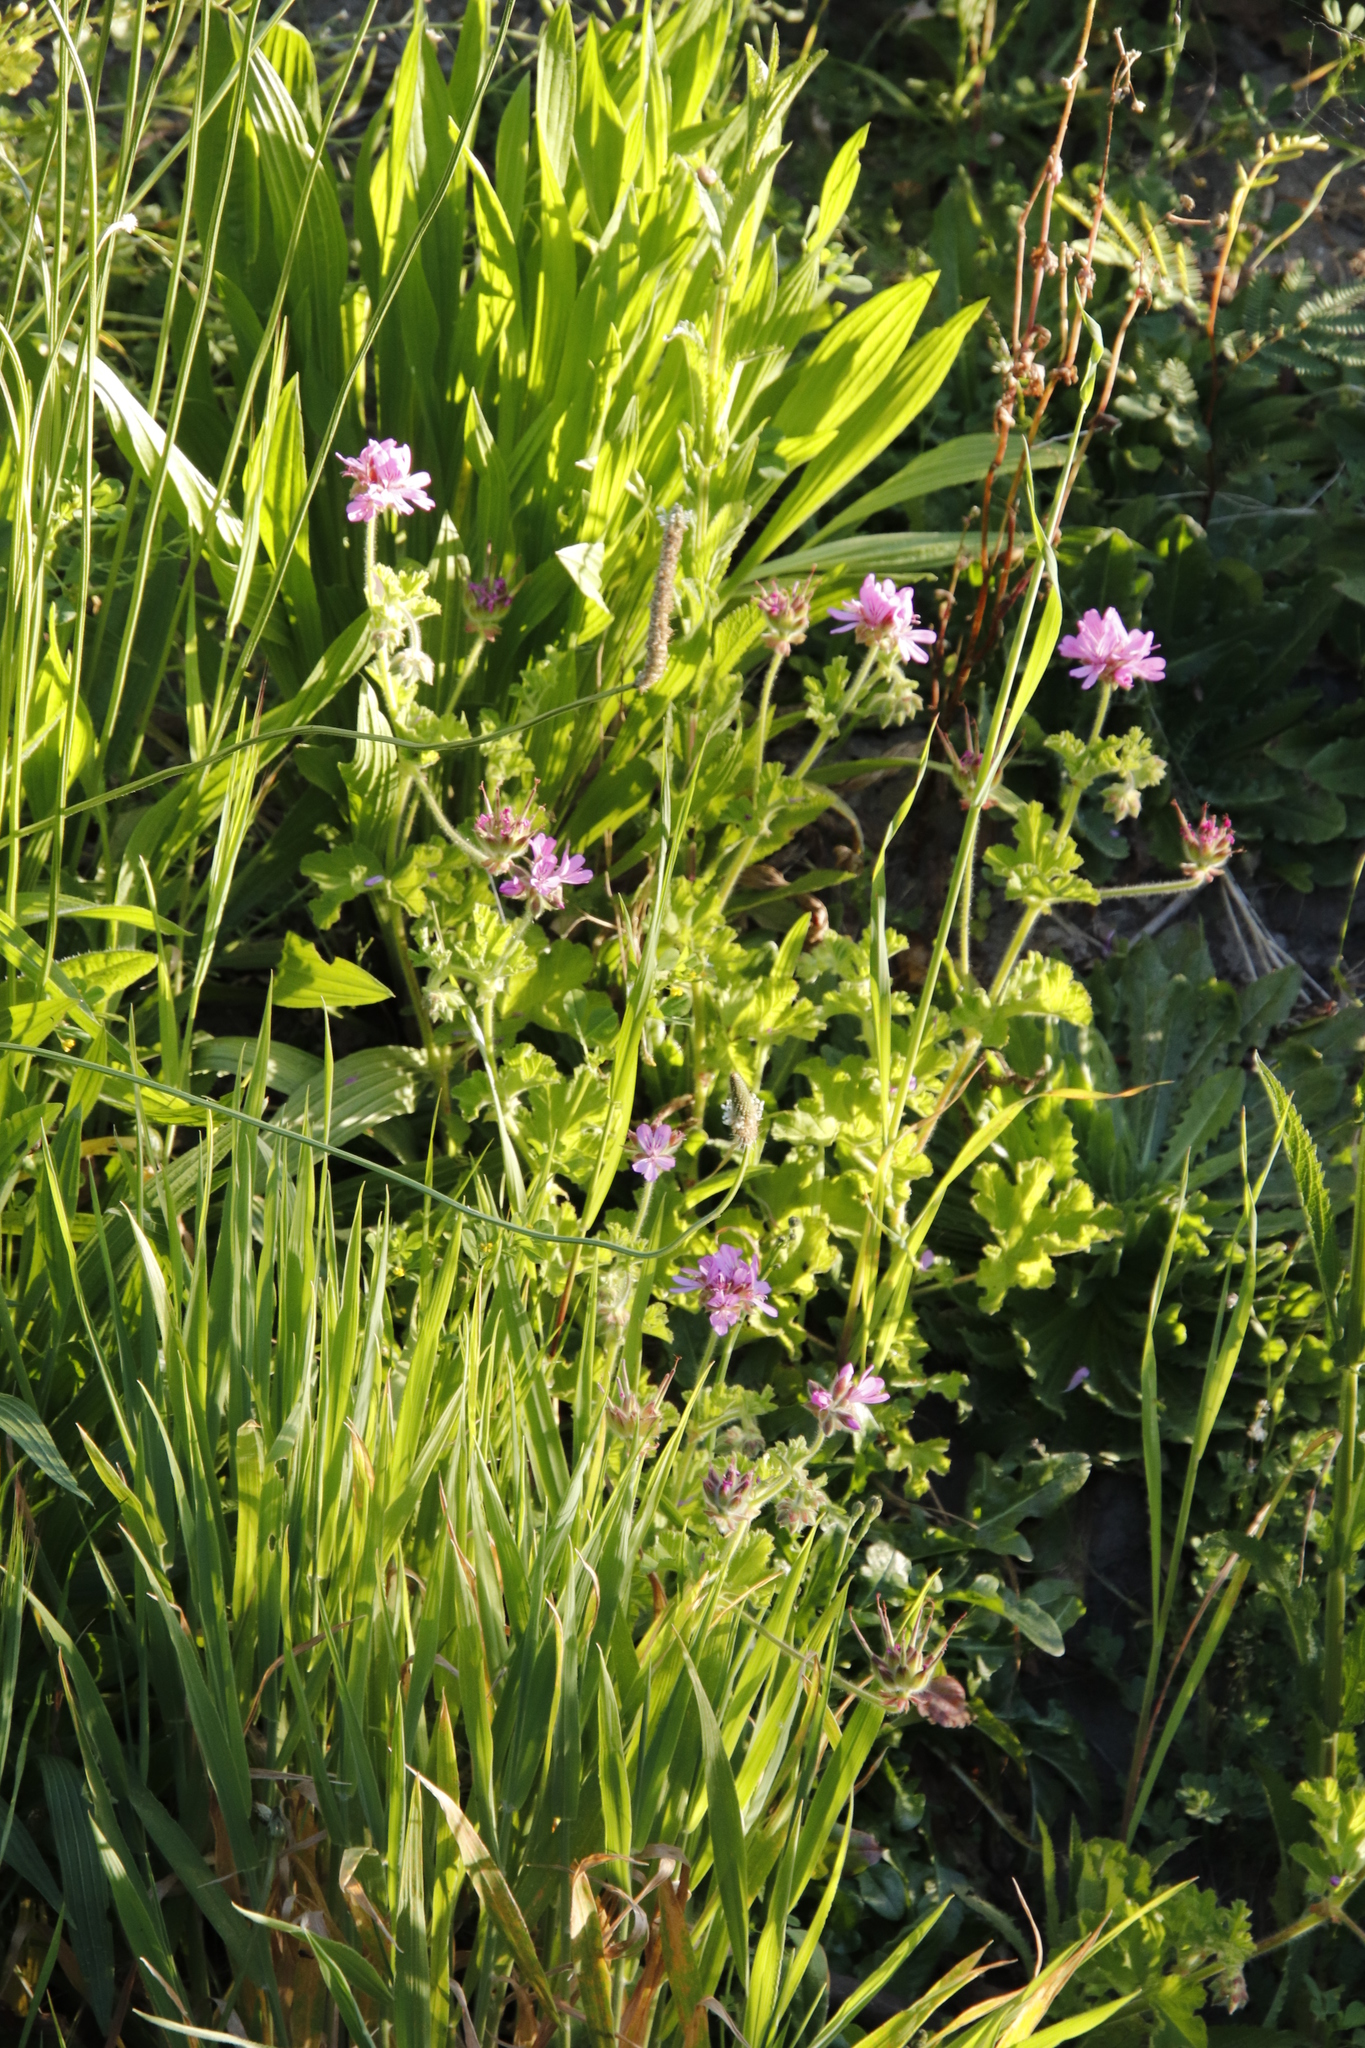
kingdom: Plantae
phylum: Tracheophyta
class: Magnoliopsida
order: Geraniales
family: Geraniaceae
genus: Pelargonium
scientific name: Pelargonium capitatum
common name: Rose scented geranium
